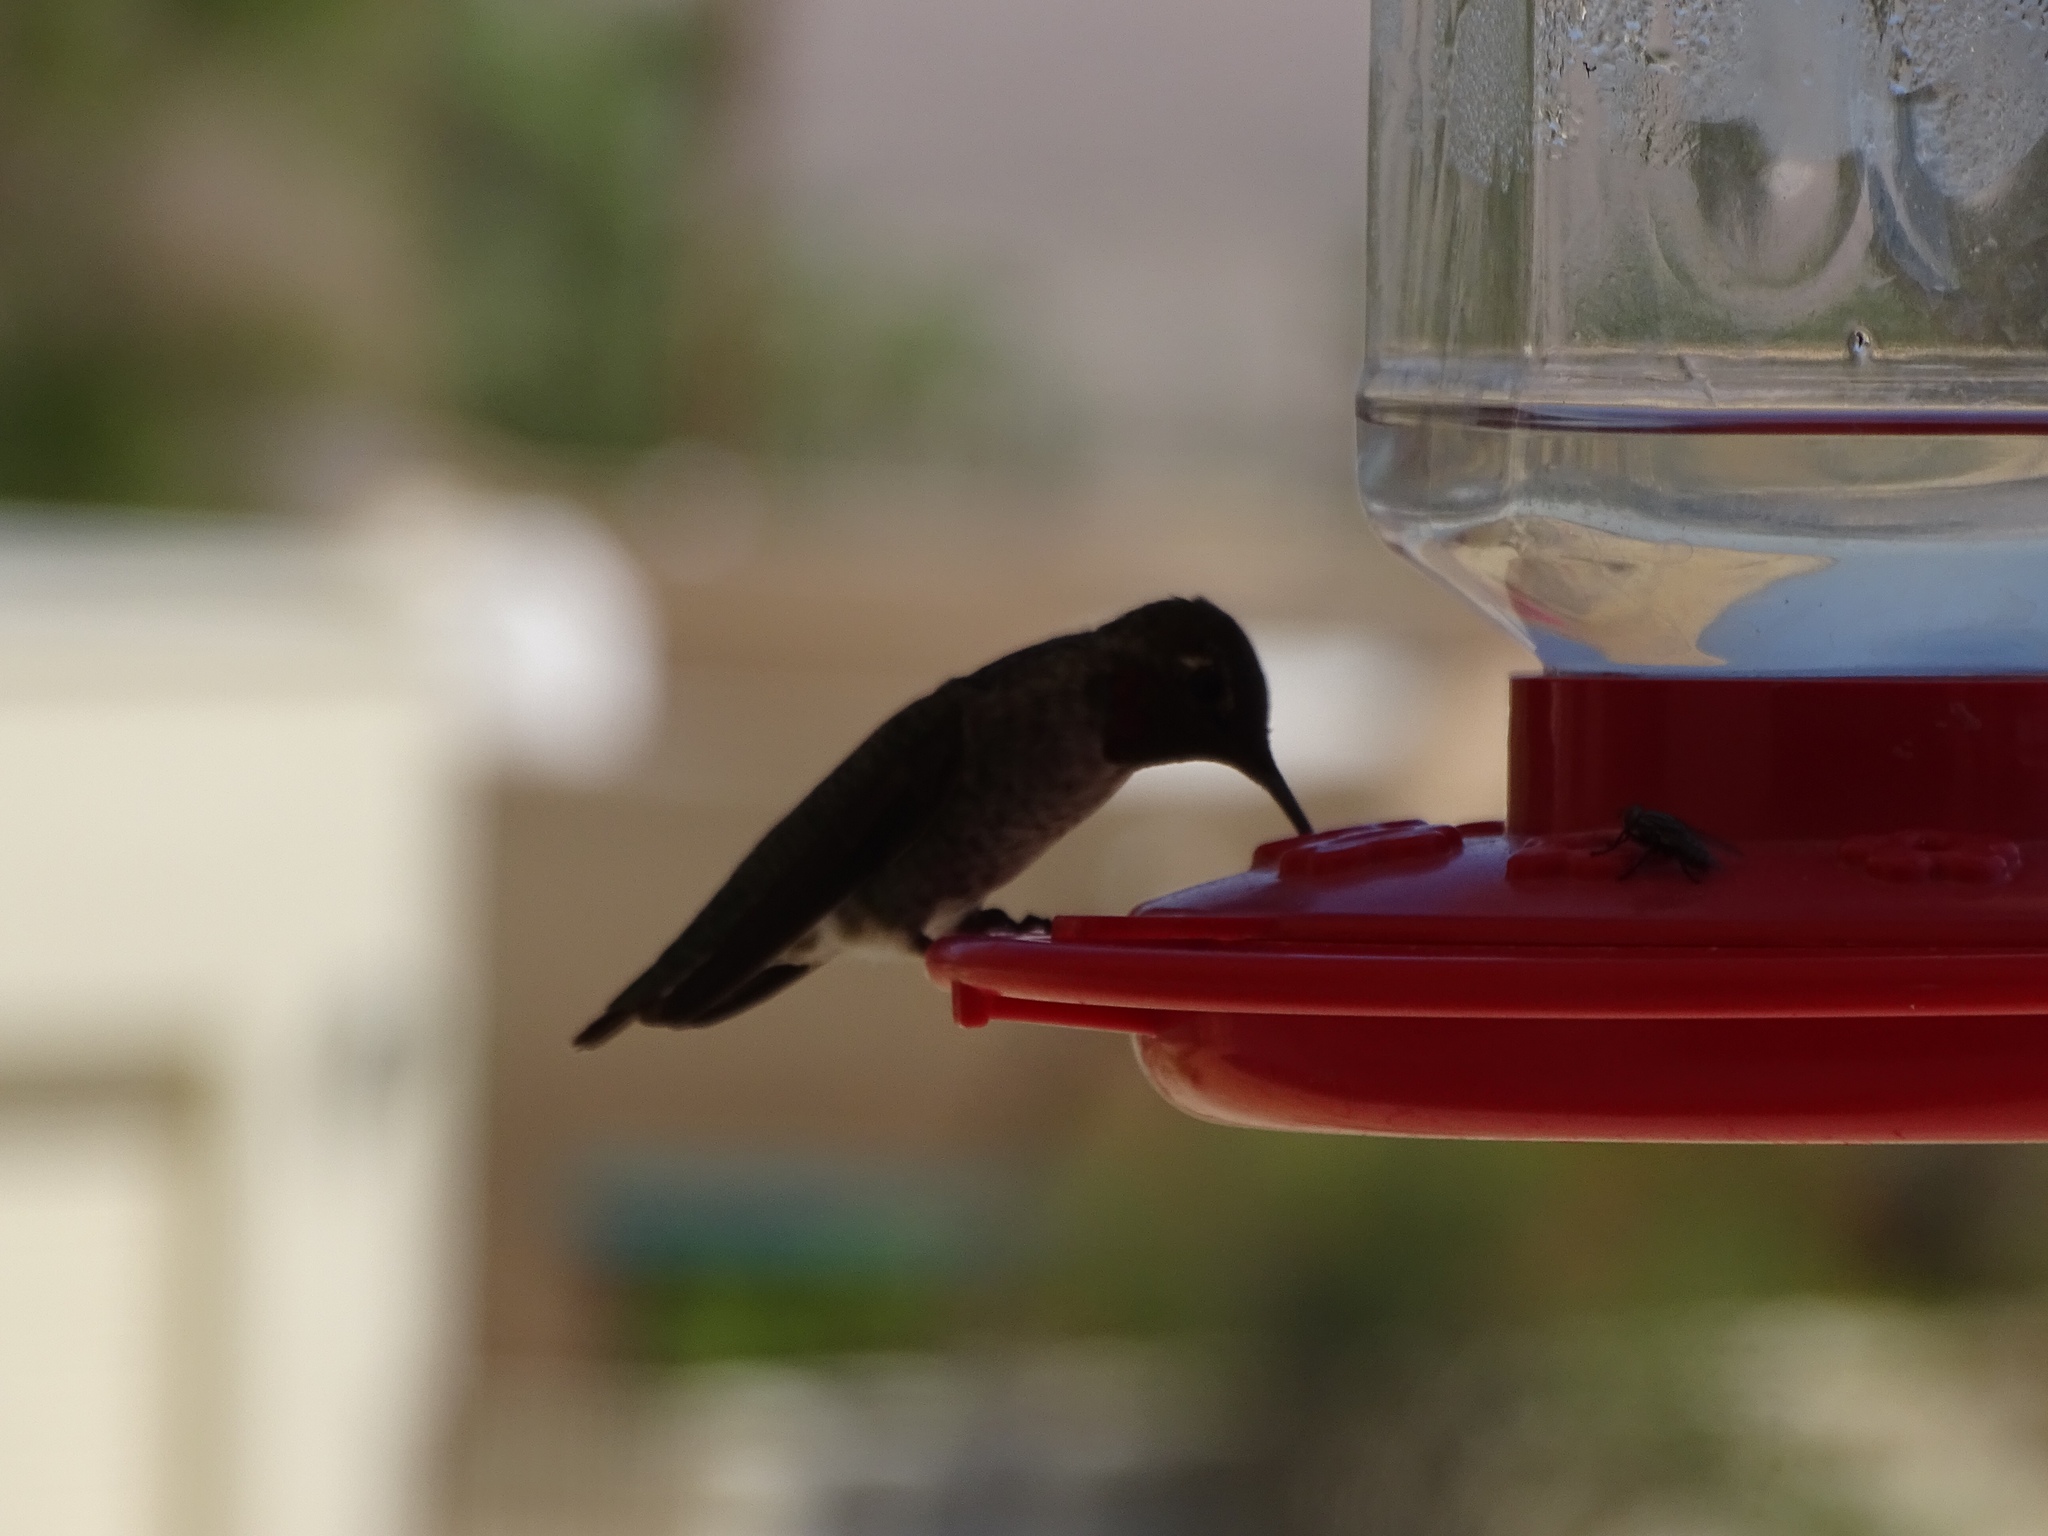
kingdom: Animalia
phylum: Chordata
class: Aves
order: Apodiformes
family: Trochilidae
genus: Calypte
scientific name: Calypte anna
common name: Anna's hummingbird
